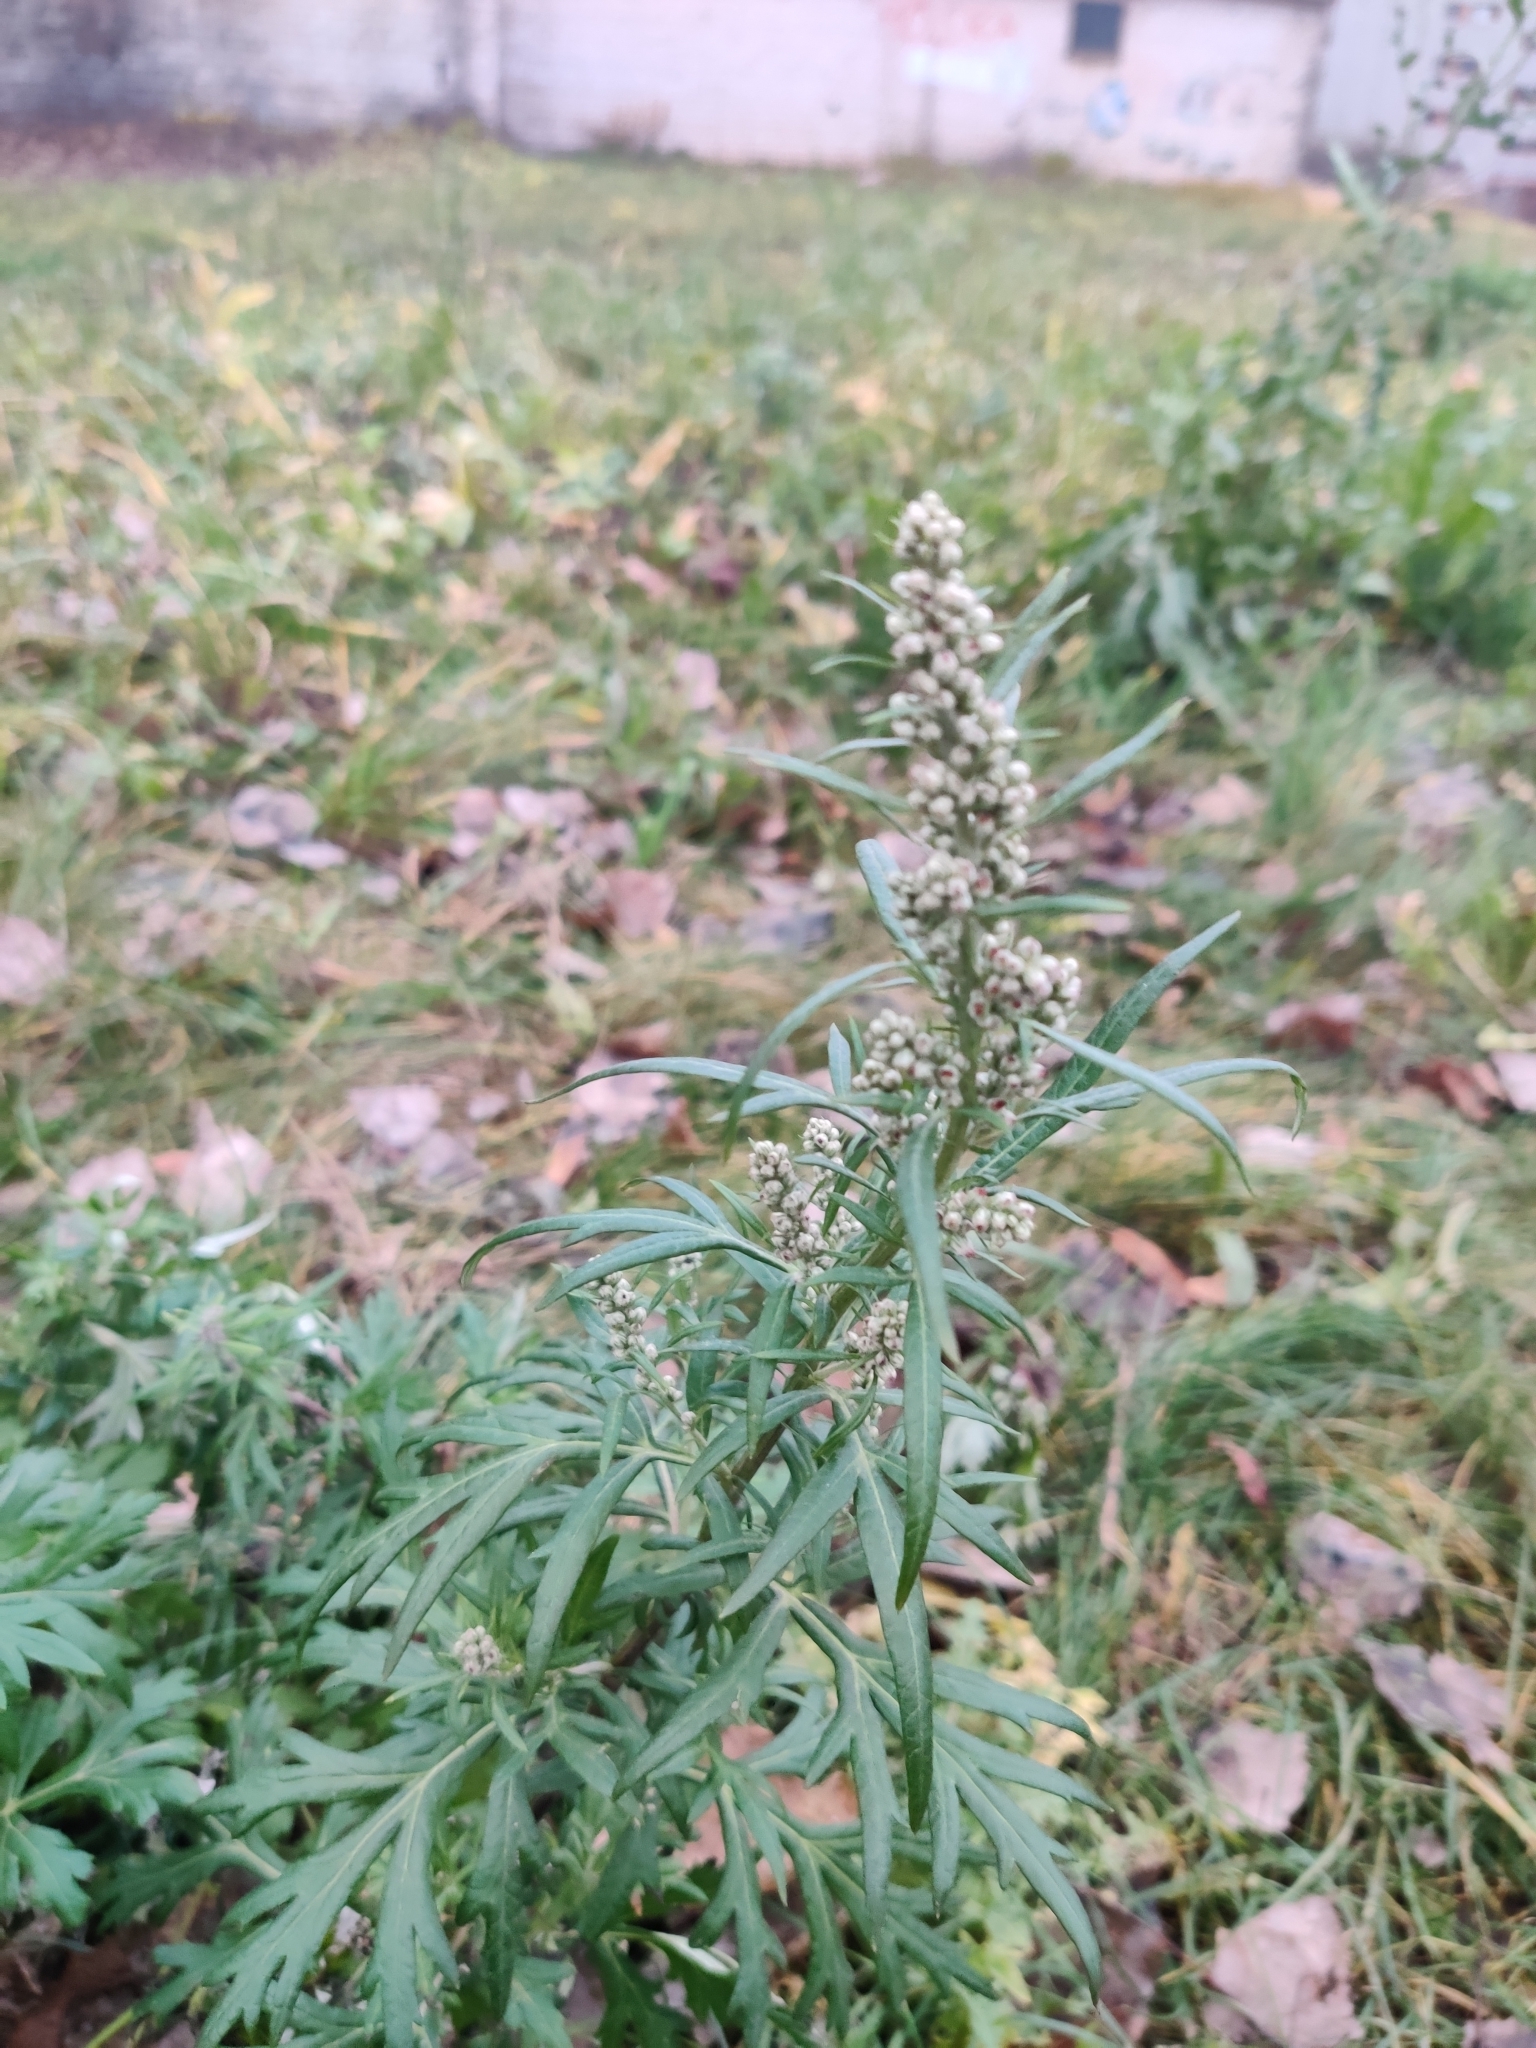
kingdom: Plantae
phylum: Tracheophyta
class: Magnoliopsida
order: Asterales
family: Asteraceae
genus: Artemisia
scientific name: Artemisia vulgaris
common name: Mugwort
